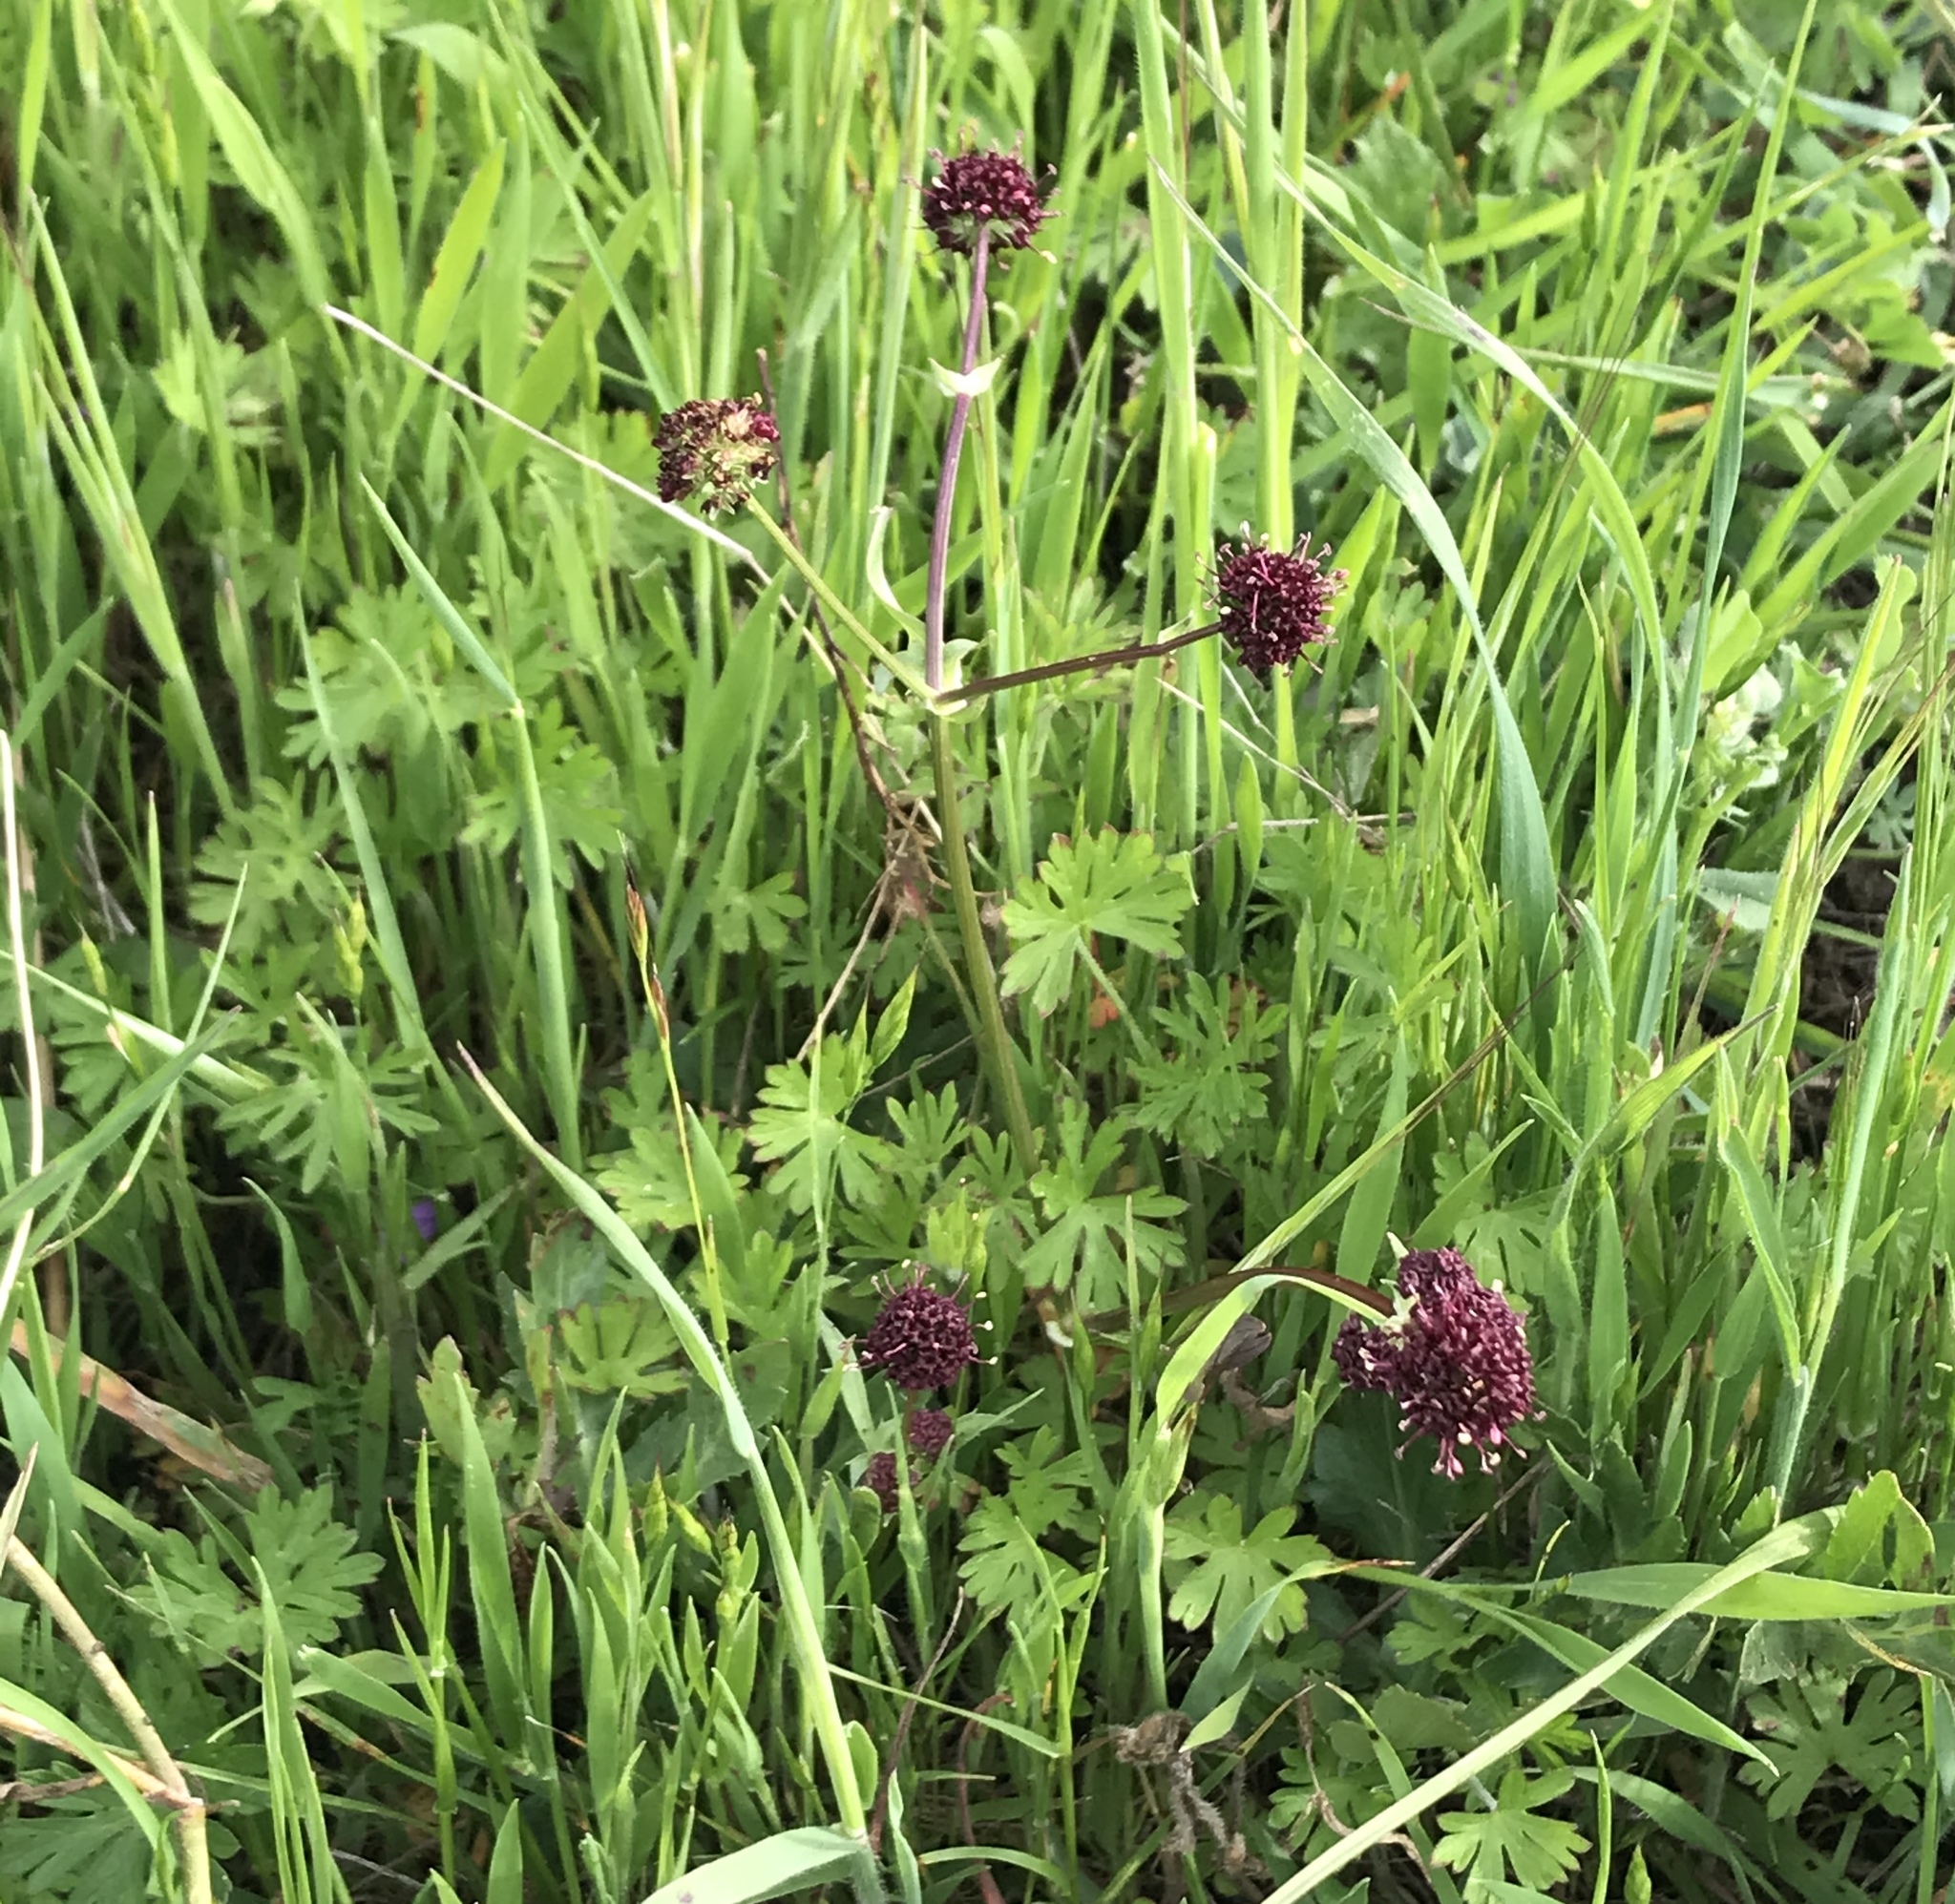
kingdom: Plantae
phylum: Tracheophyta
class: Magnoliopsida
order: Apiales
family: Apiaceae
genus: Sanicula
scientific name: Sanicula bipinnatifida
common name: Shoe-buttons
